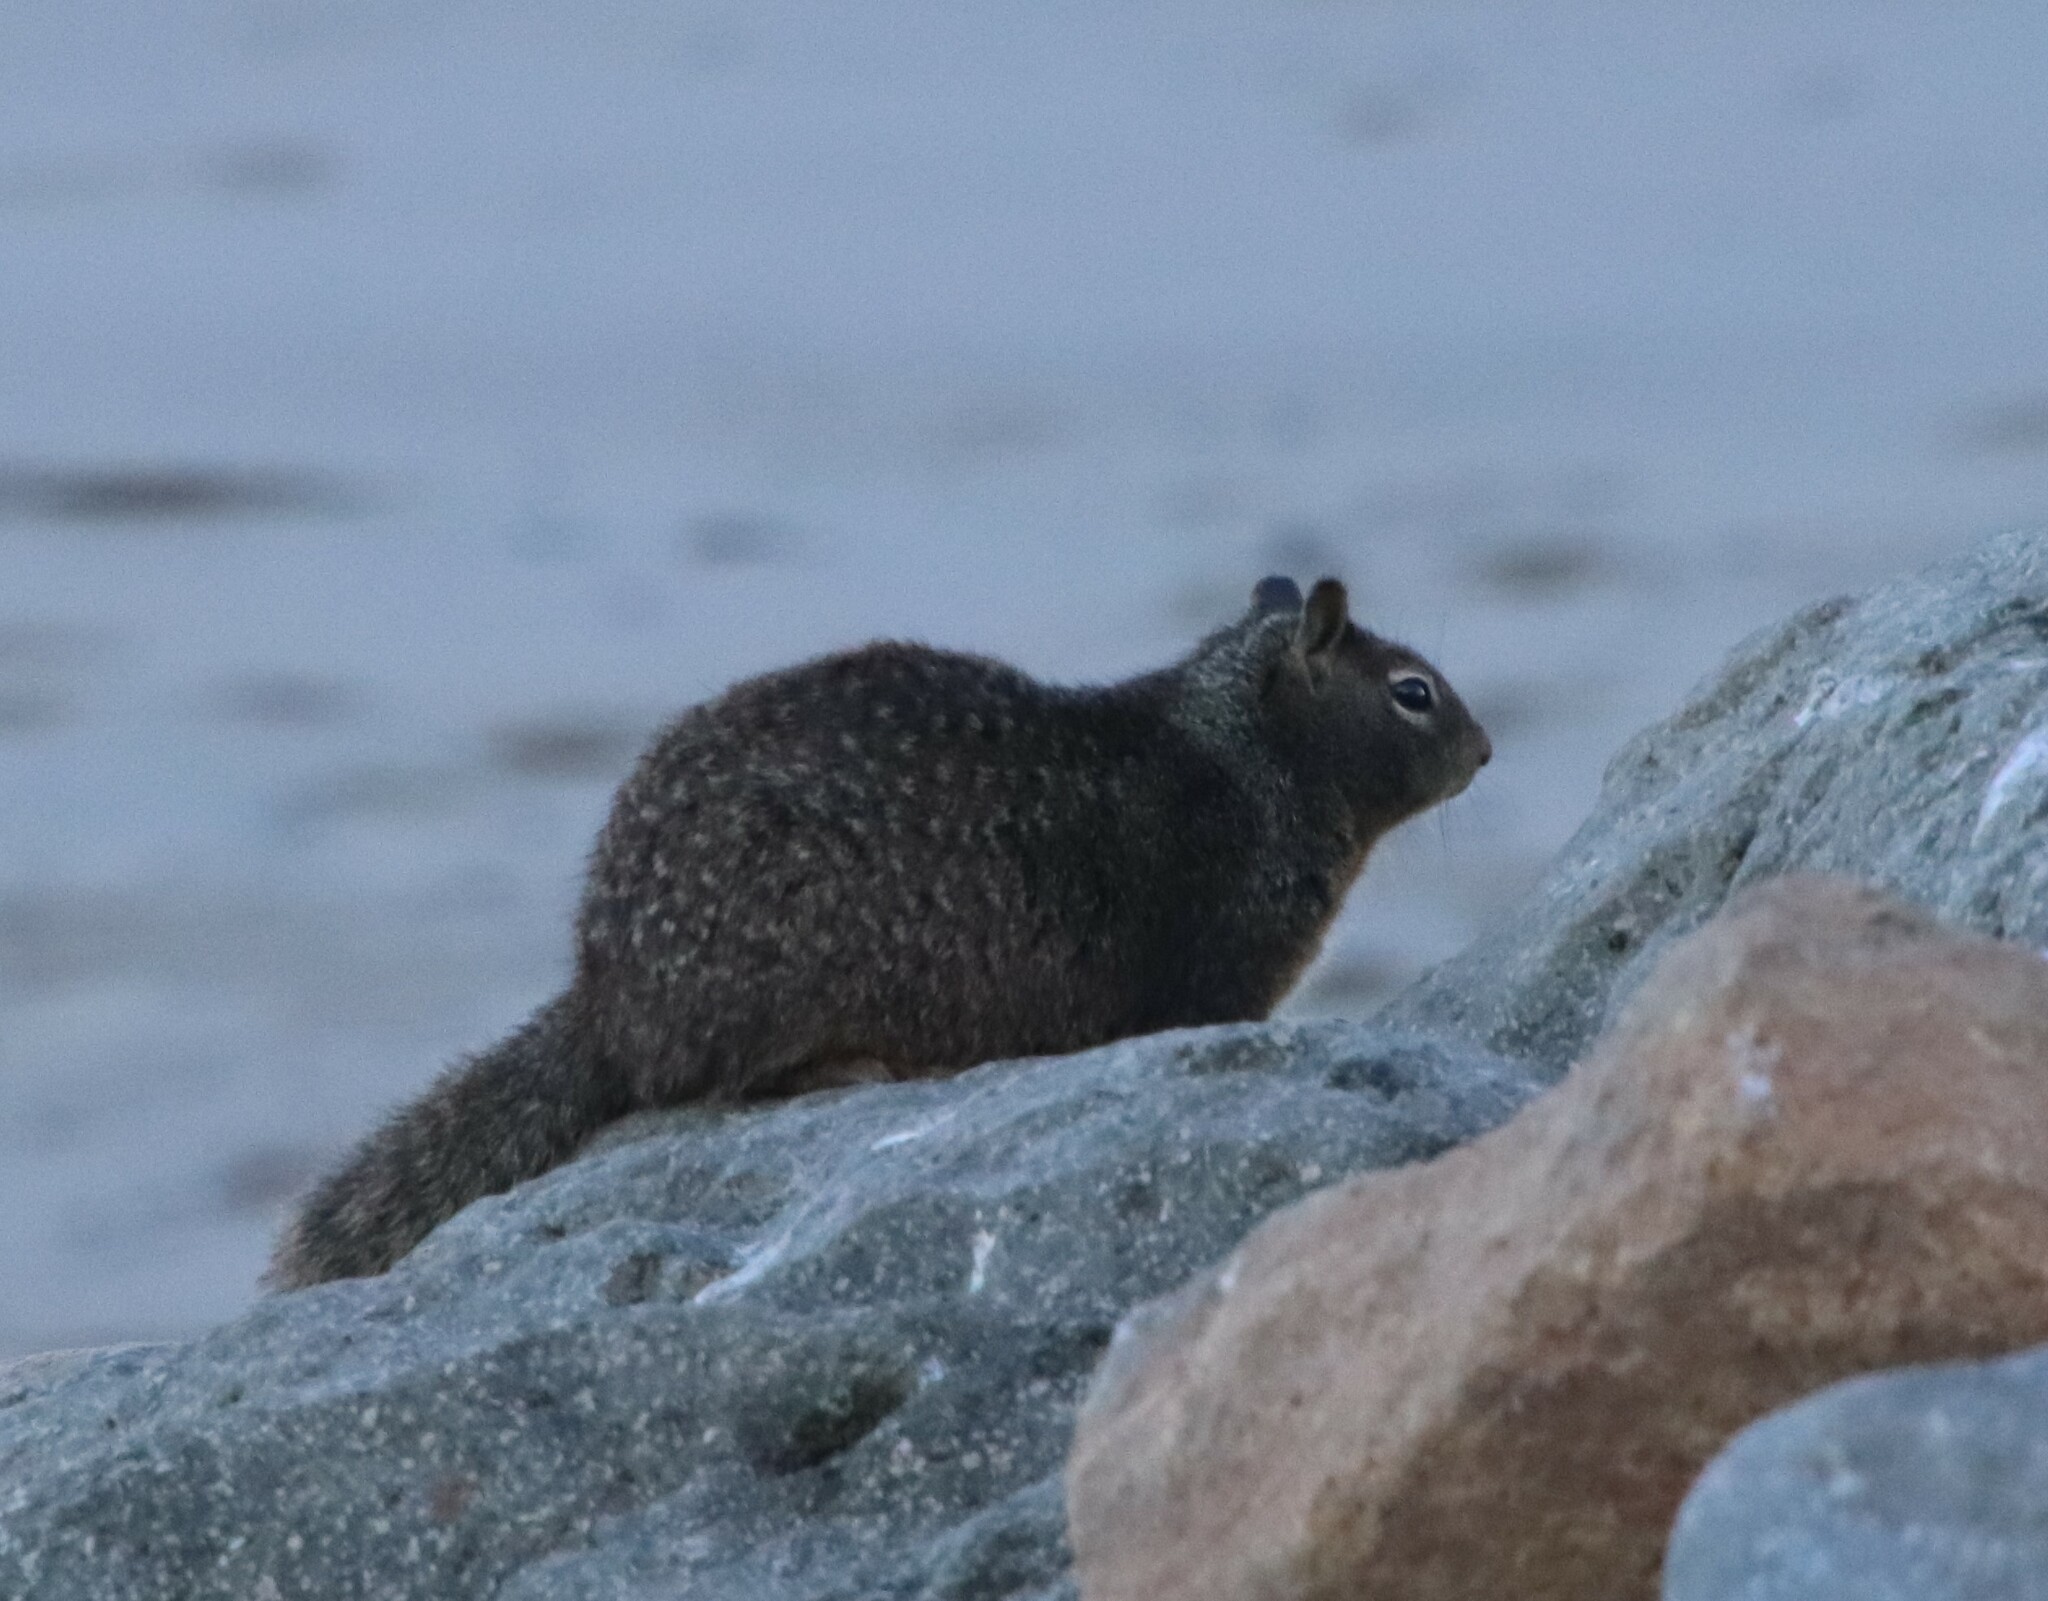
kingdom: Animalia
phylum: Chordata
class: Mammalia
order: Rodentia
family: Sciuridae
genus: Otospermophilus
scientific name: Otospermophilus beecheyi
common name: California ground squirrel
